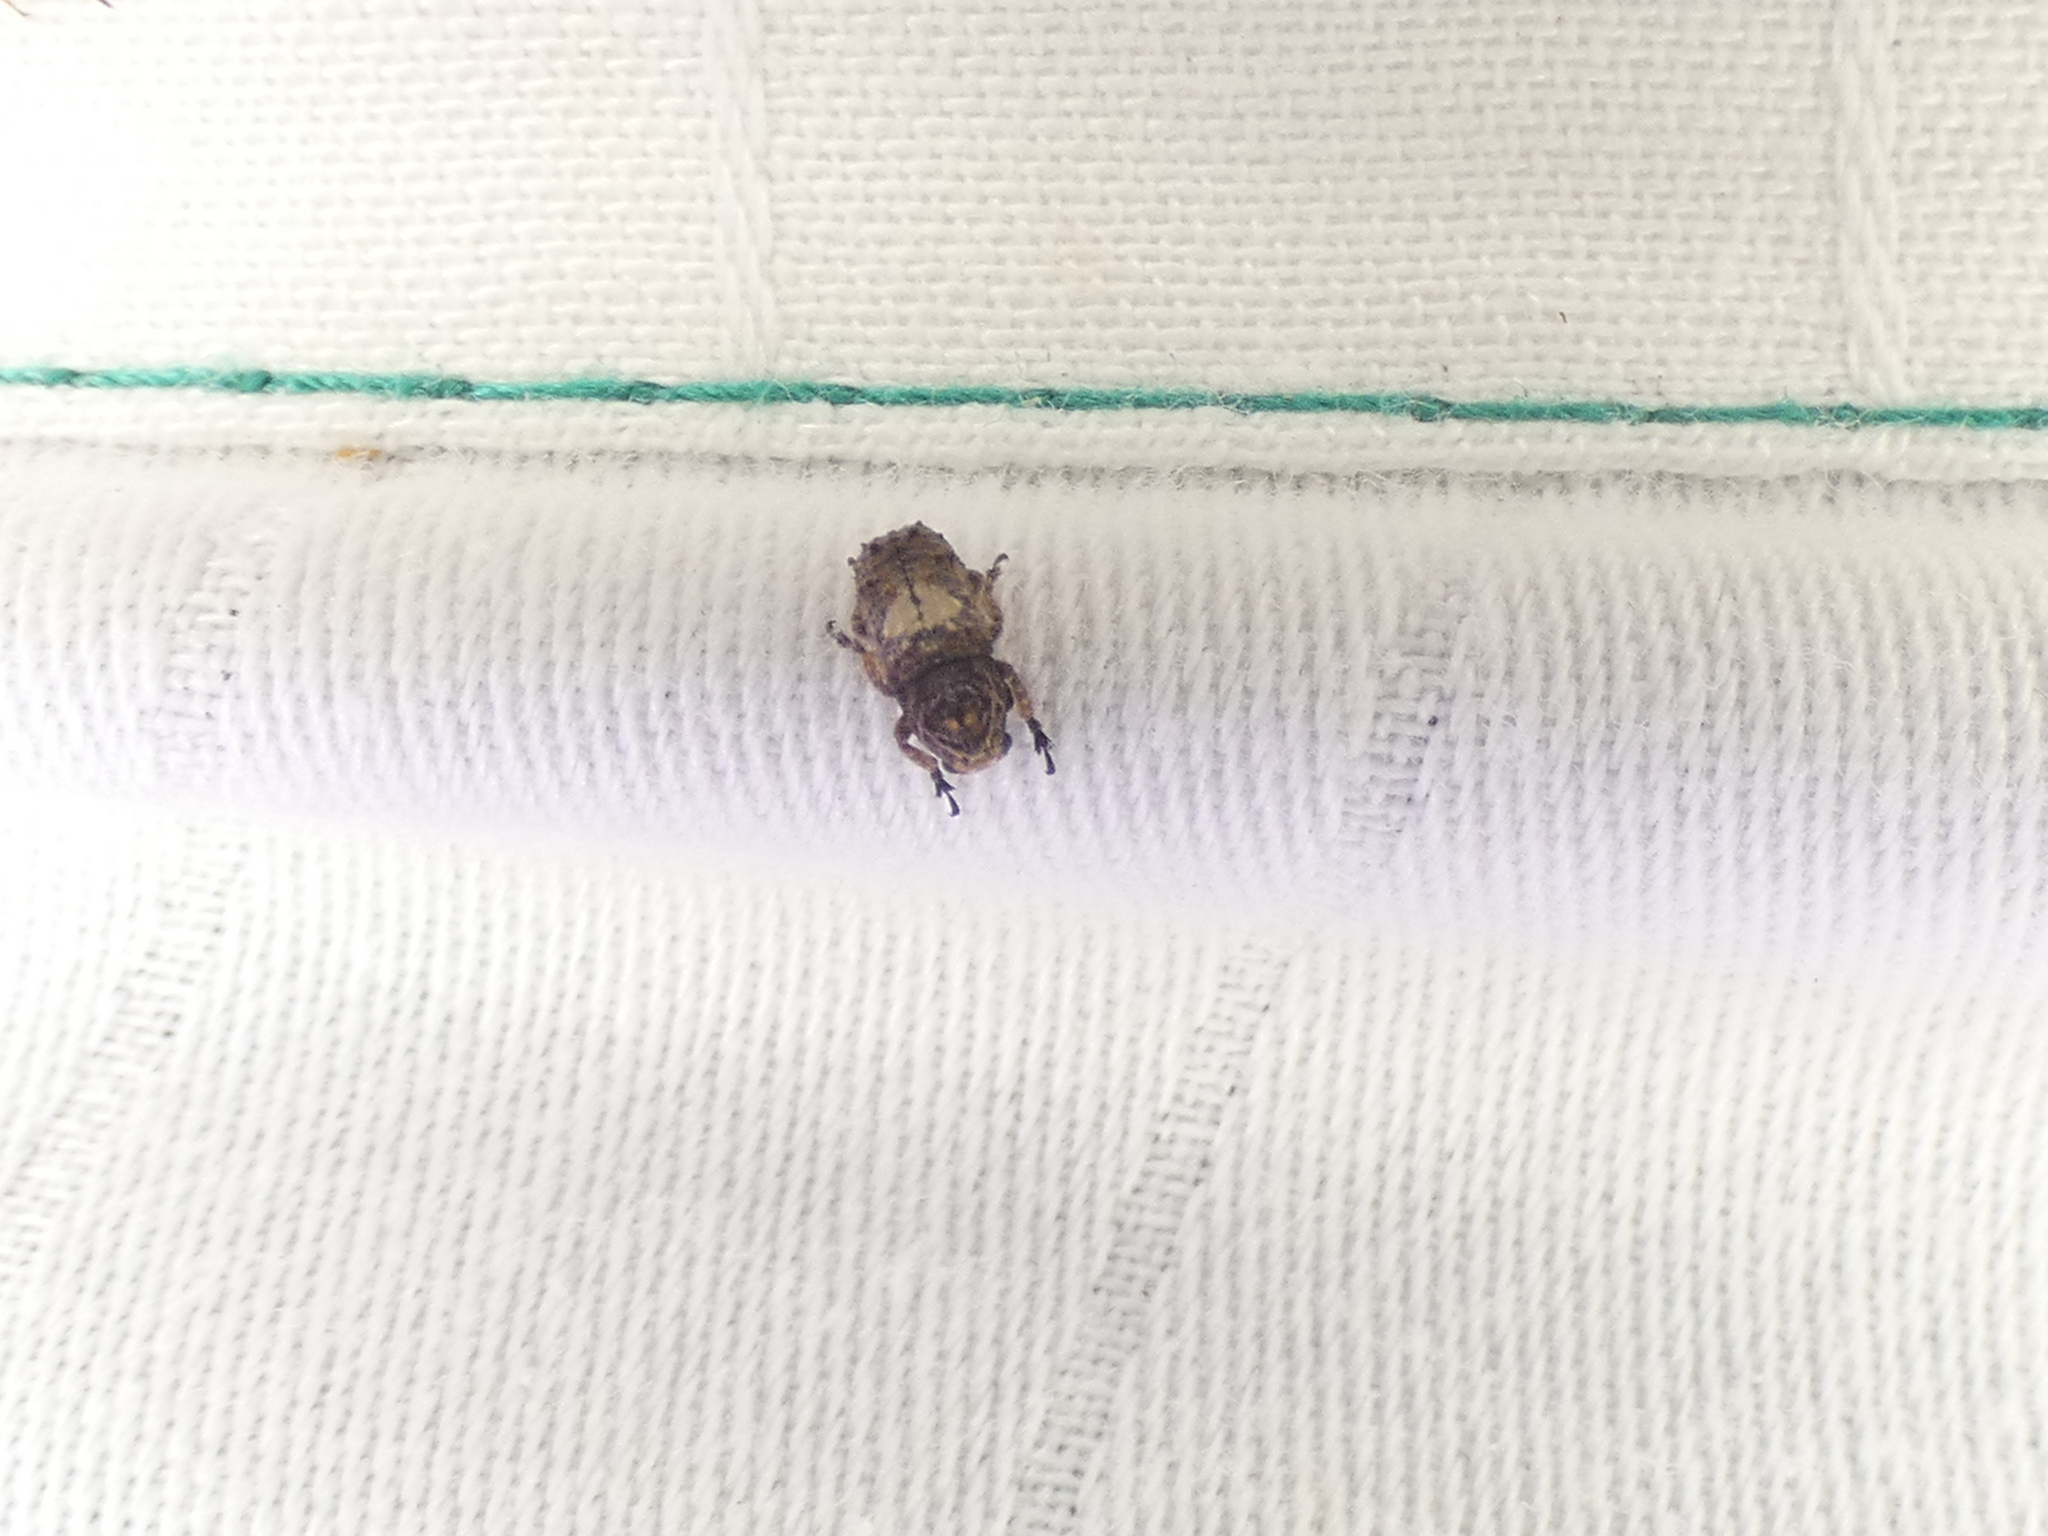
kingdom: Animalia
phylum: Arthropoda
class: Insecta
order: Coleoptera
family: Anthribidae
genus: Toxonotus
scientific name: Toxonotus cornutus
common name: Fungus weevil
